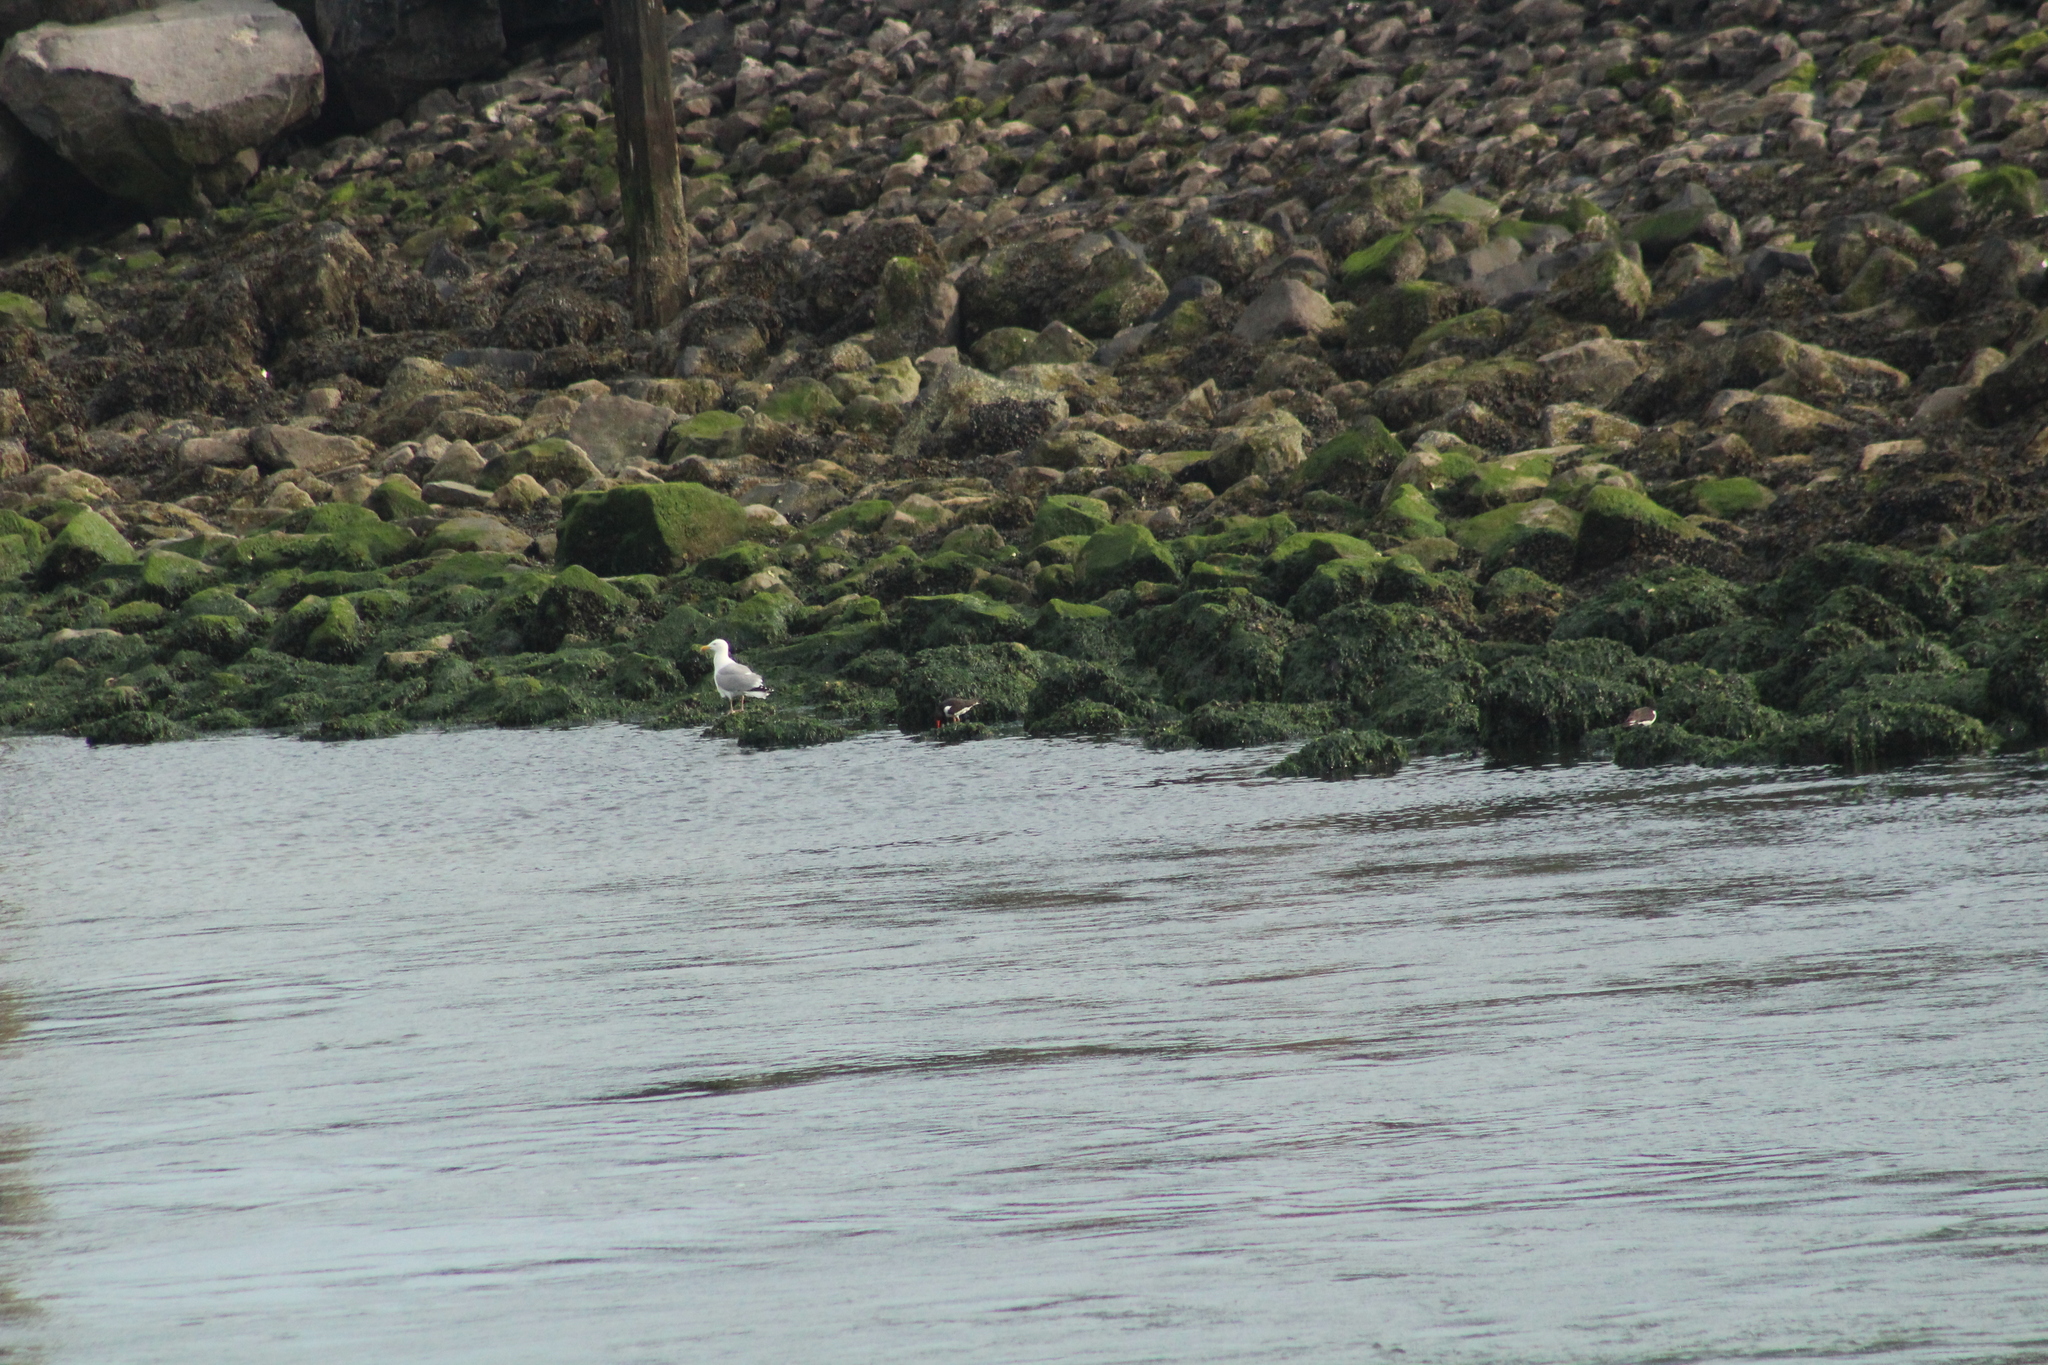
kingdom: Animalia
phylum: Chordata
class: Aves
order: Charadriiformes
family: Haematopodidae
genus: Haematopus
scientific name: Haematopus ostralegus
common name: Eurasian oystercatcher
